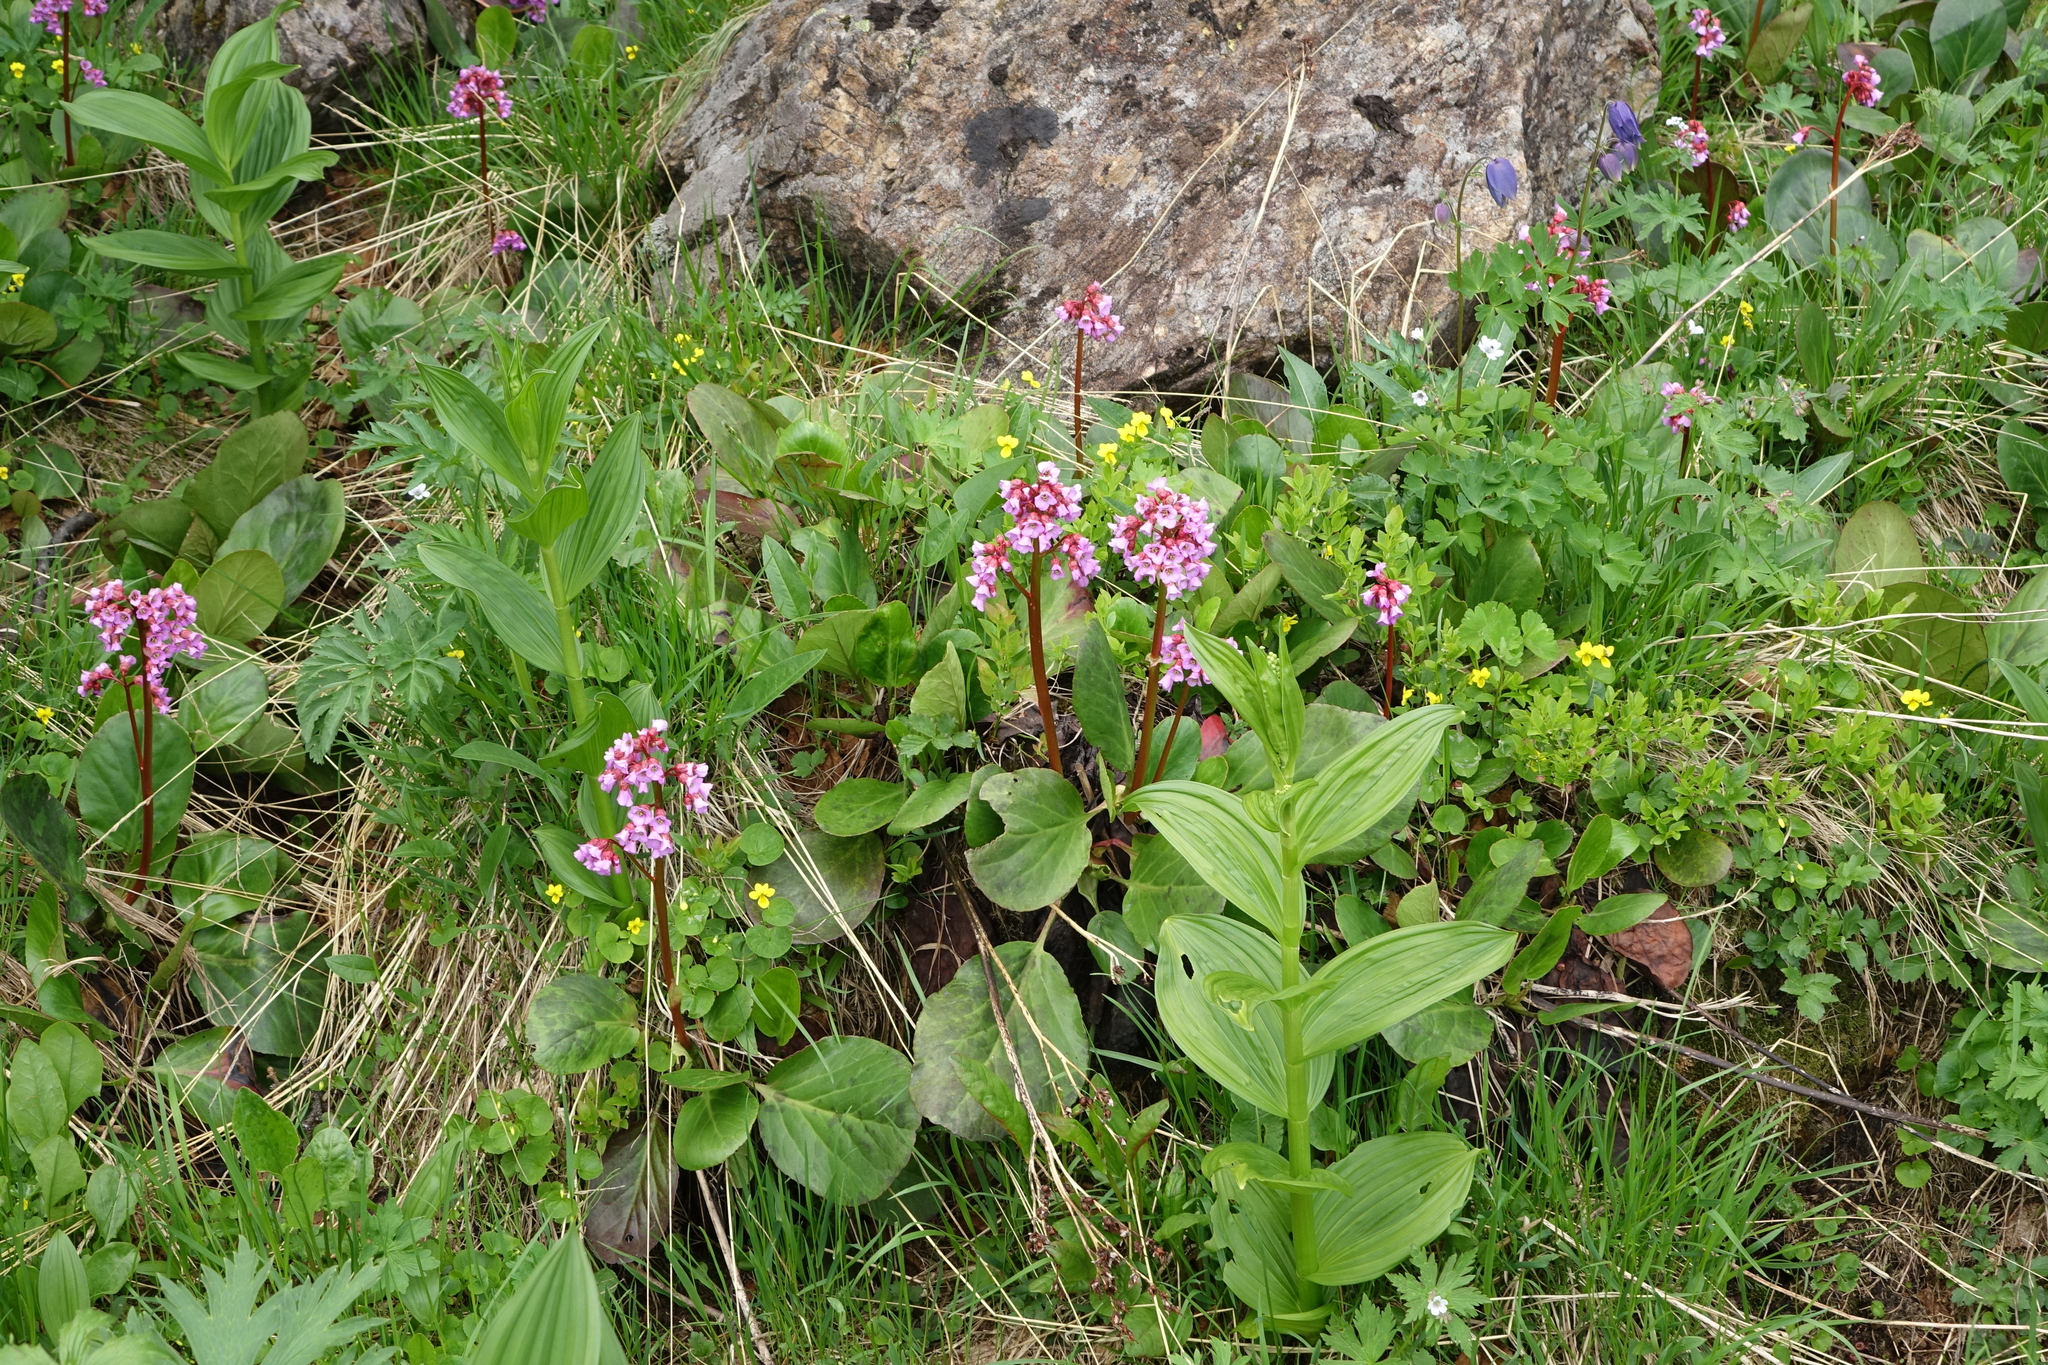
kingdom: Plantae
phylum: Tracheophyta
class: Magnoliopsida
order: Saxifragales
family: Saxifragaceae
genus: Bergenia
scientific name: Bergenia crassifolia
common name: Elephant-ears
